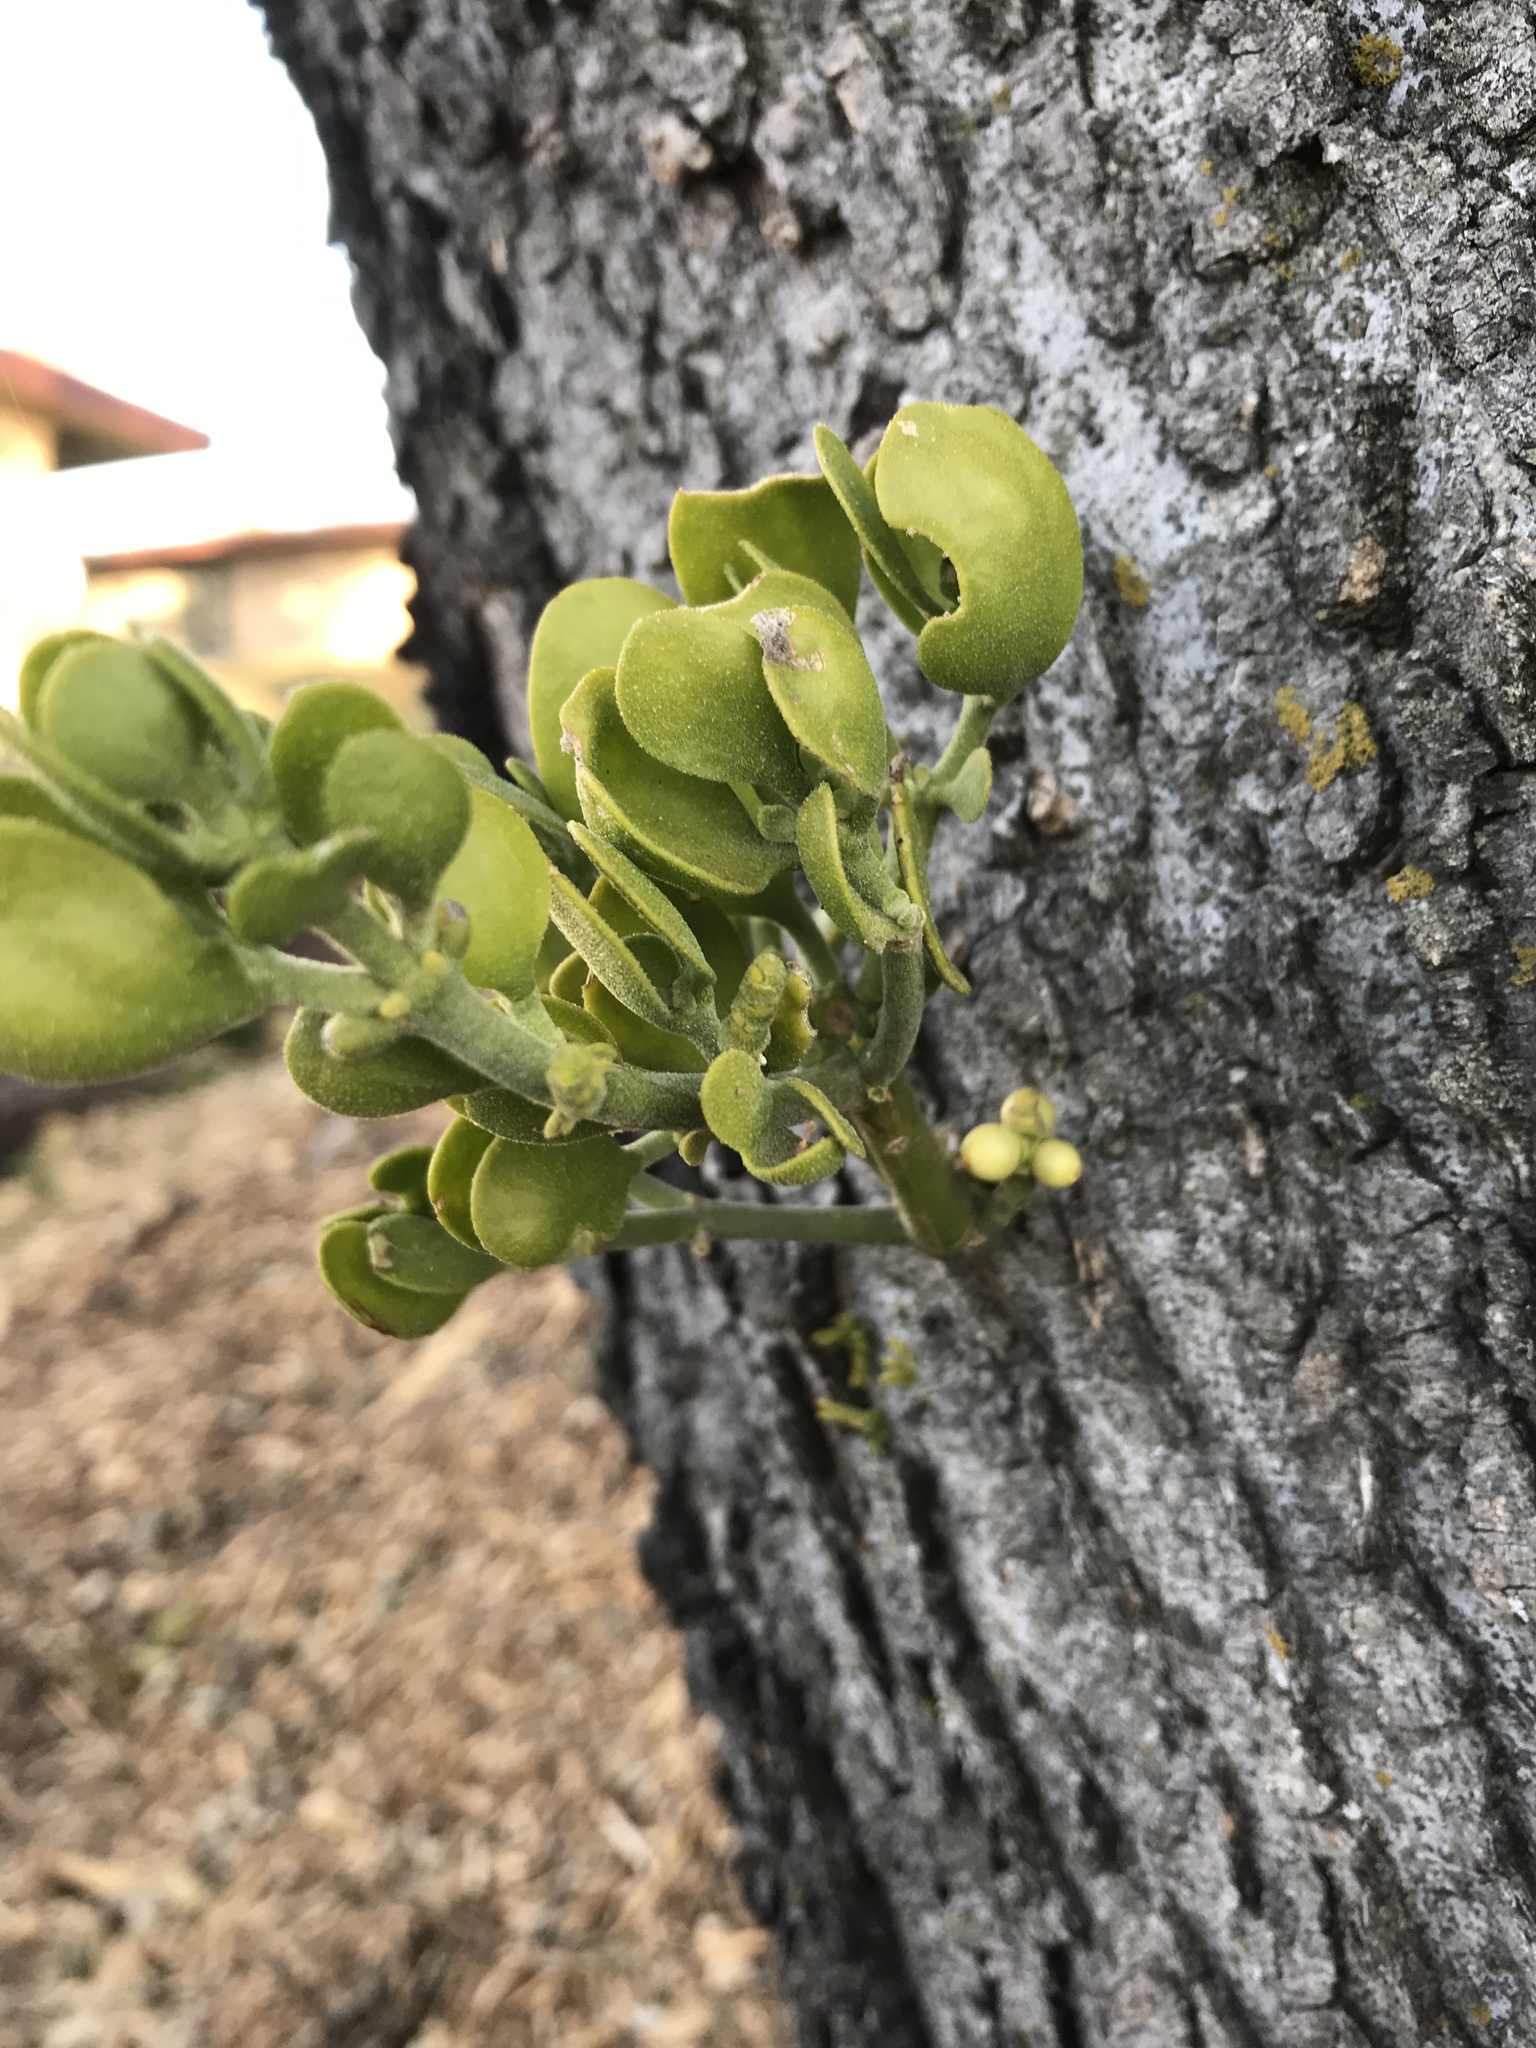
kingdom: Plantae
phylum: Tracheophyta
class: Magnoliopsida
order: Santalales
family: Viscaceae
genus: Phoradendron
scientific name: Phoradendron leucarpum
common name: Pacific mistletoe
